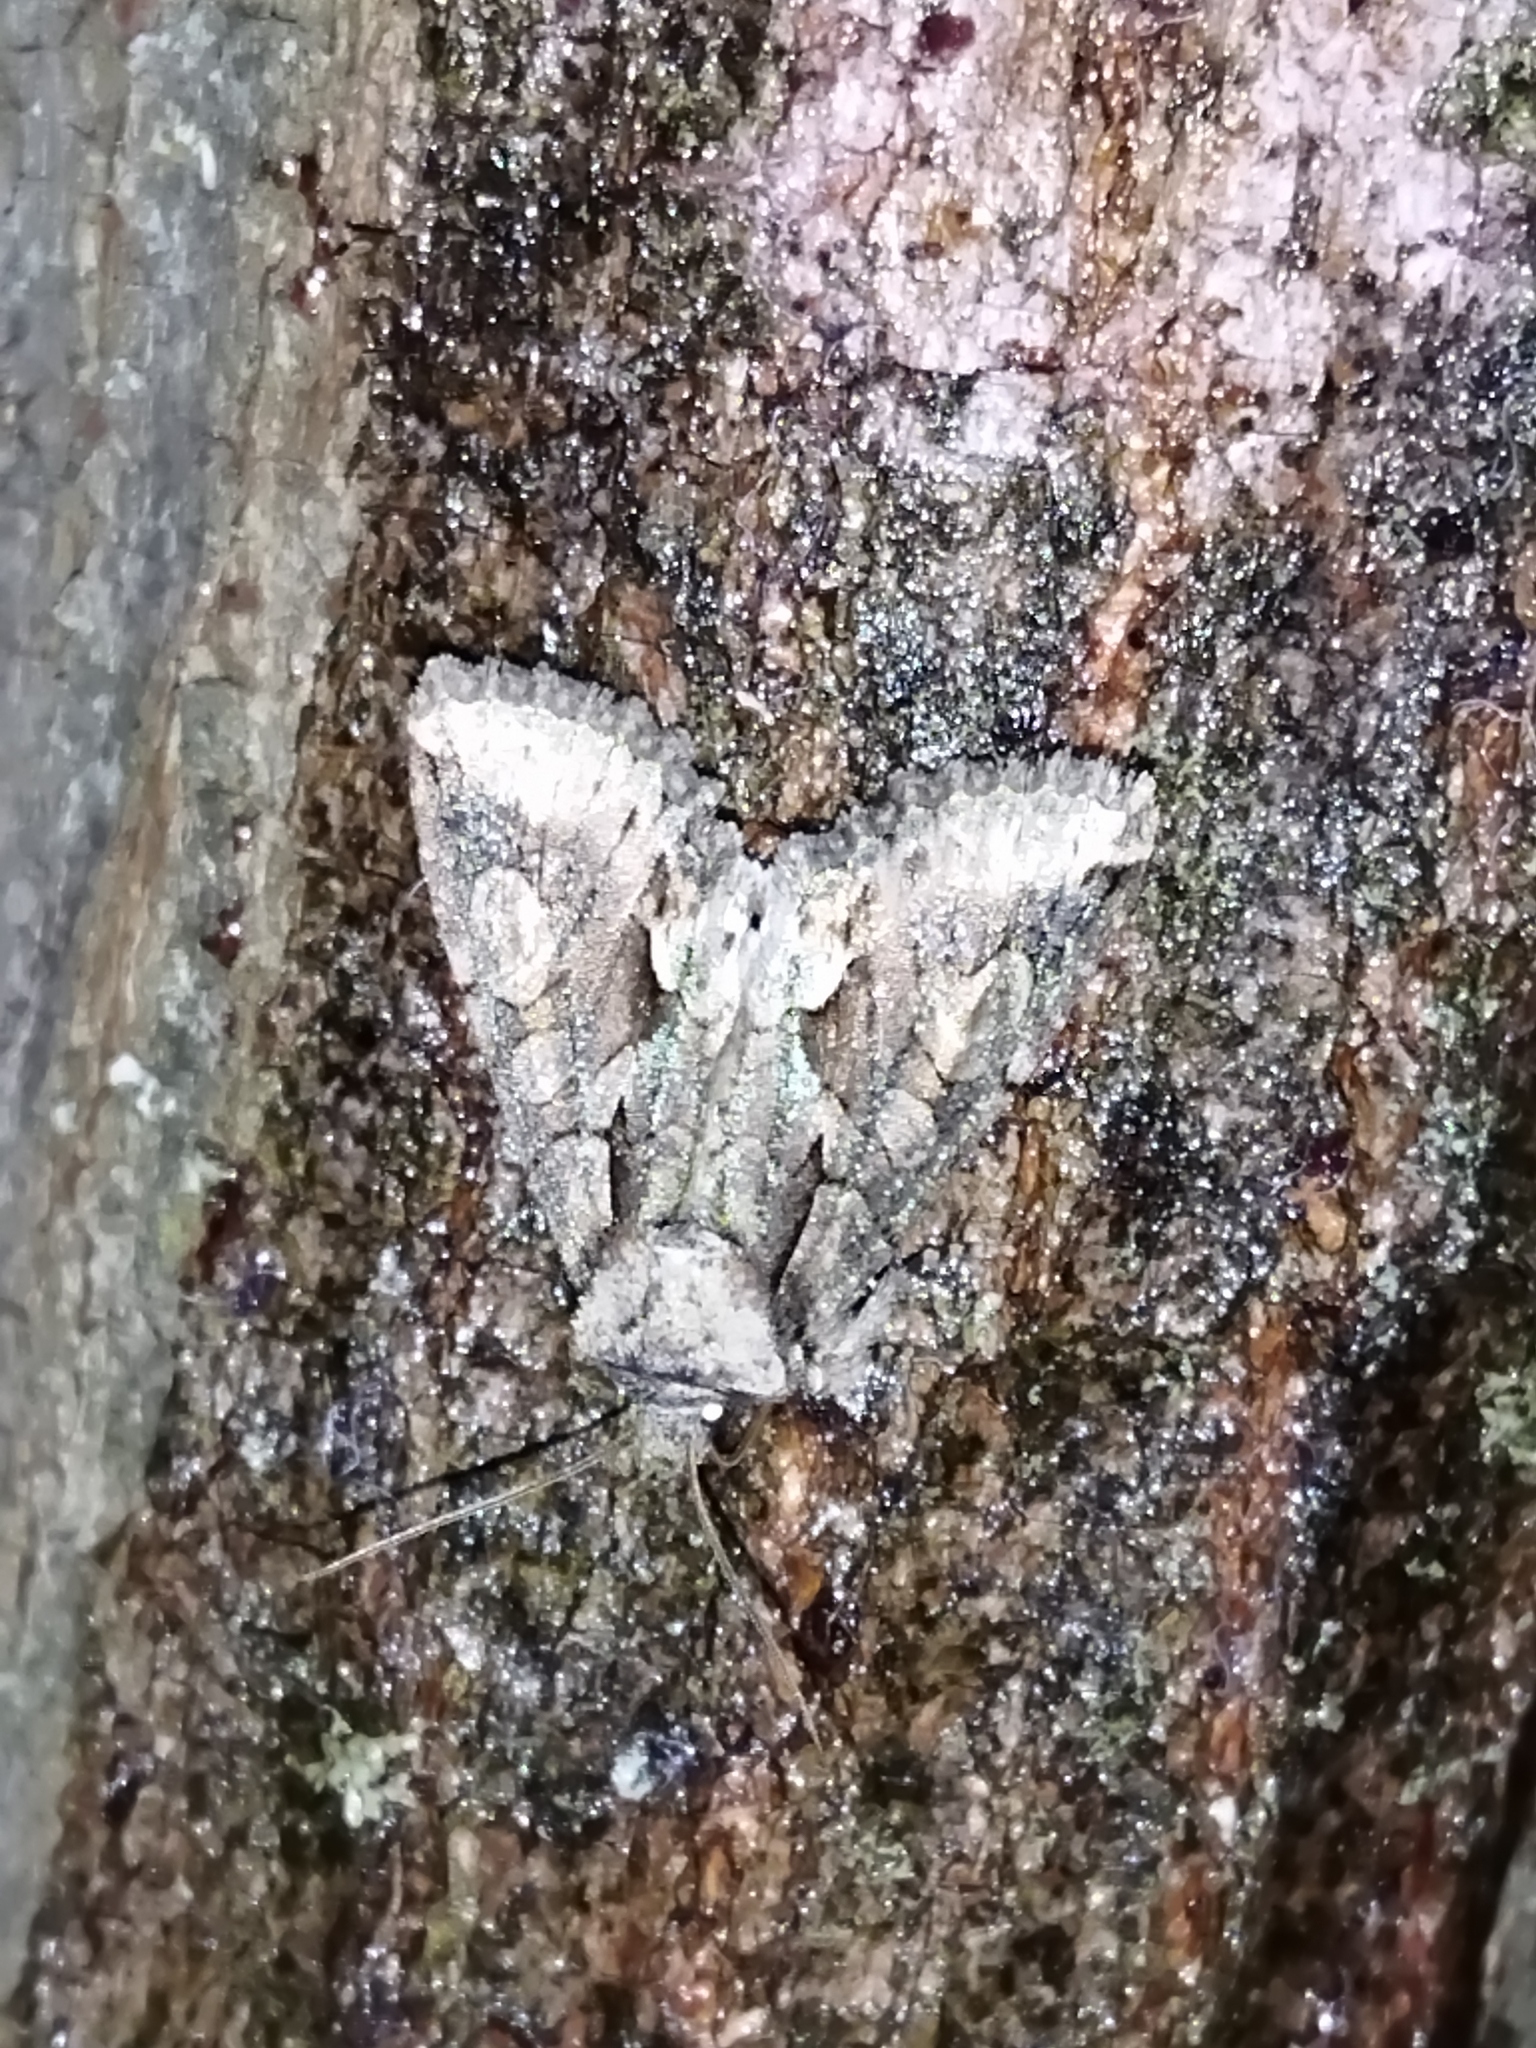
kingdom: Animalia
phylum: Arthropoda
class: Insecta
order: Lepidoptera
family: Noctuidae
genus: Allophyes
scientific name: Allophyes oxyacanthae
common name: Green-brindled crescent
